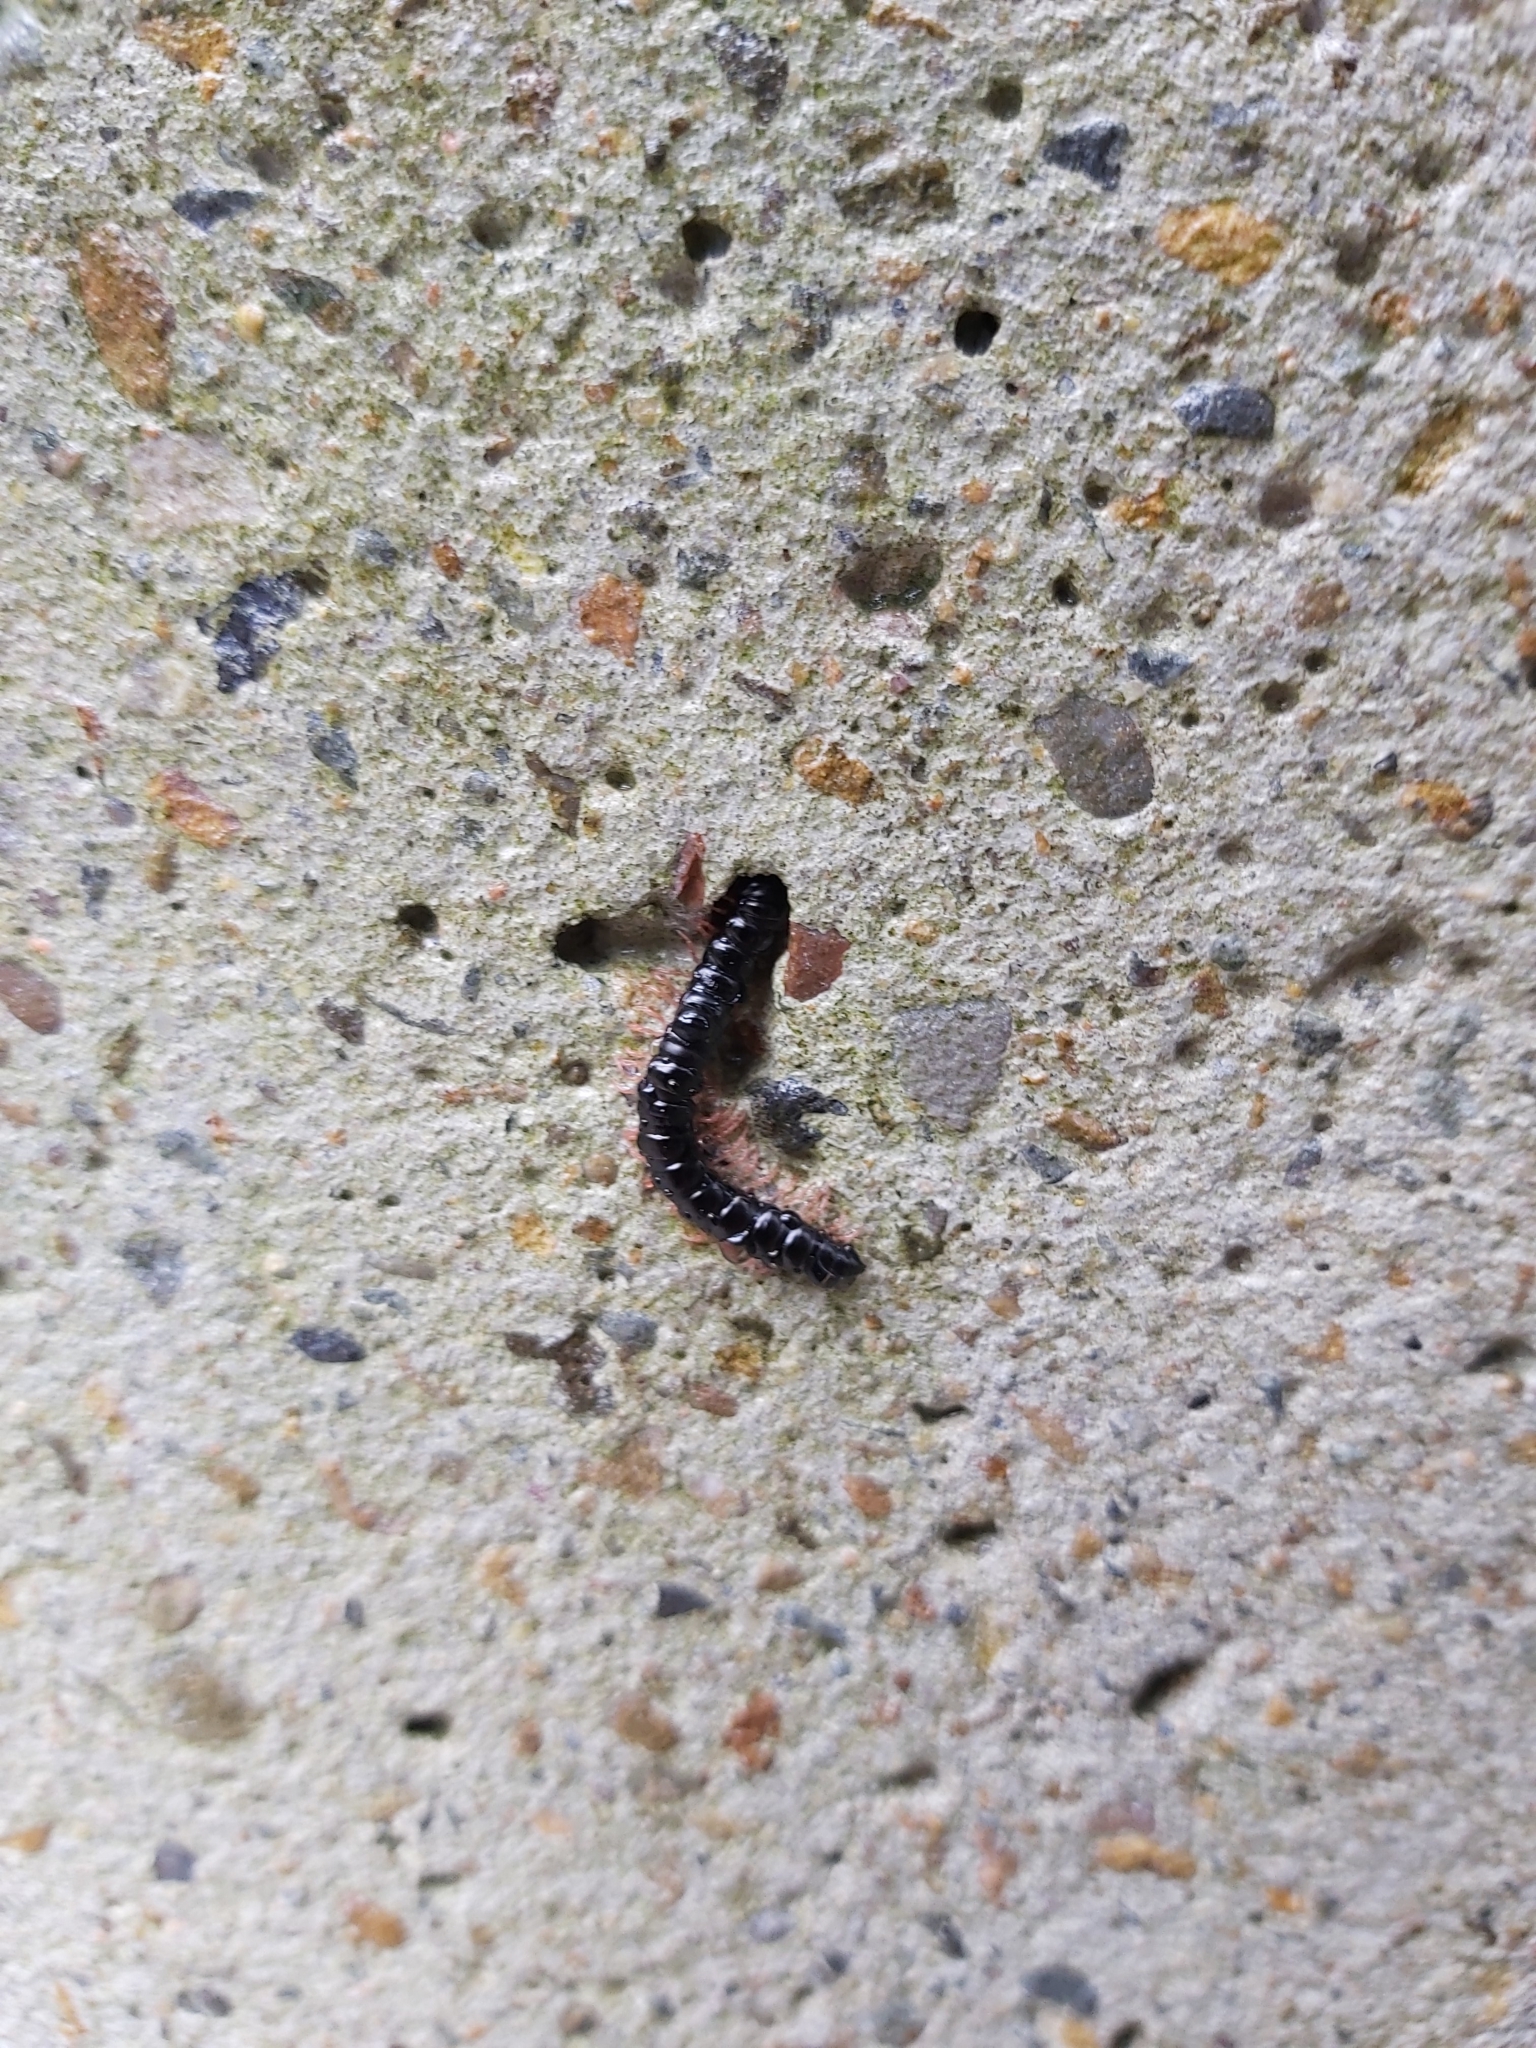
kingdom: Animalia
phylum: Arthropoda
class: Diplopoda
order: Polydesmida
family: Paradoxosomatidae
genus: Heterocladosoma
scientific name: Heterocladosoma
